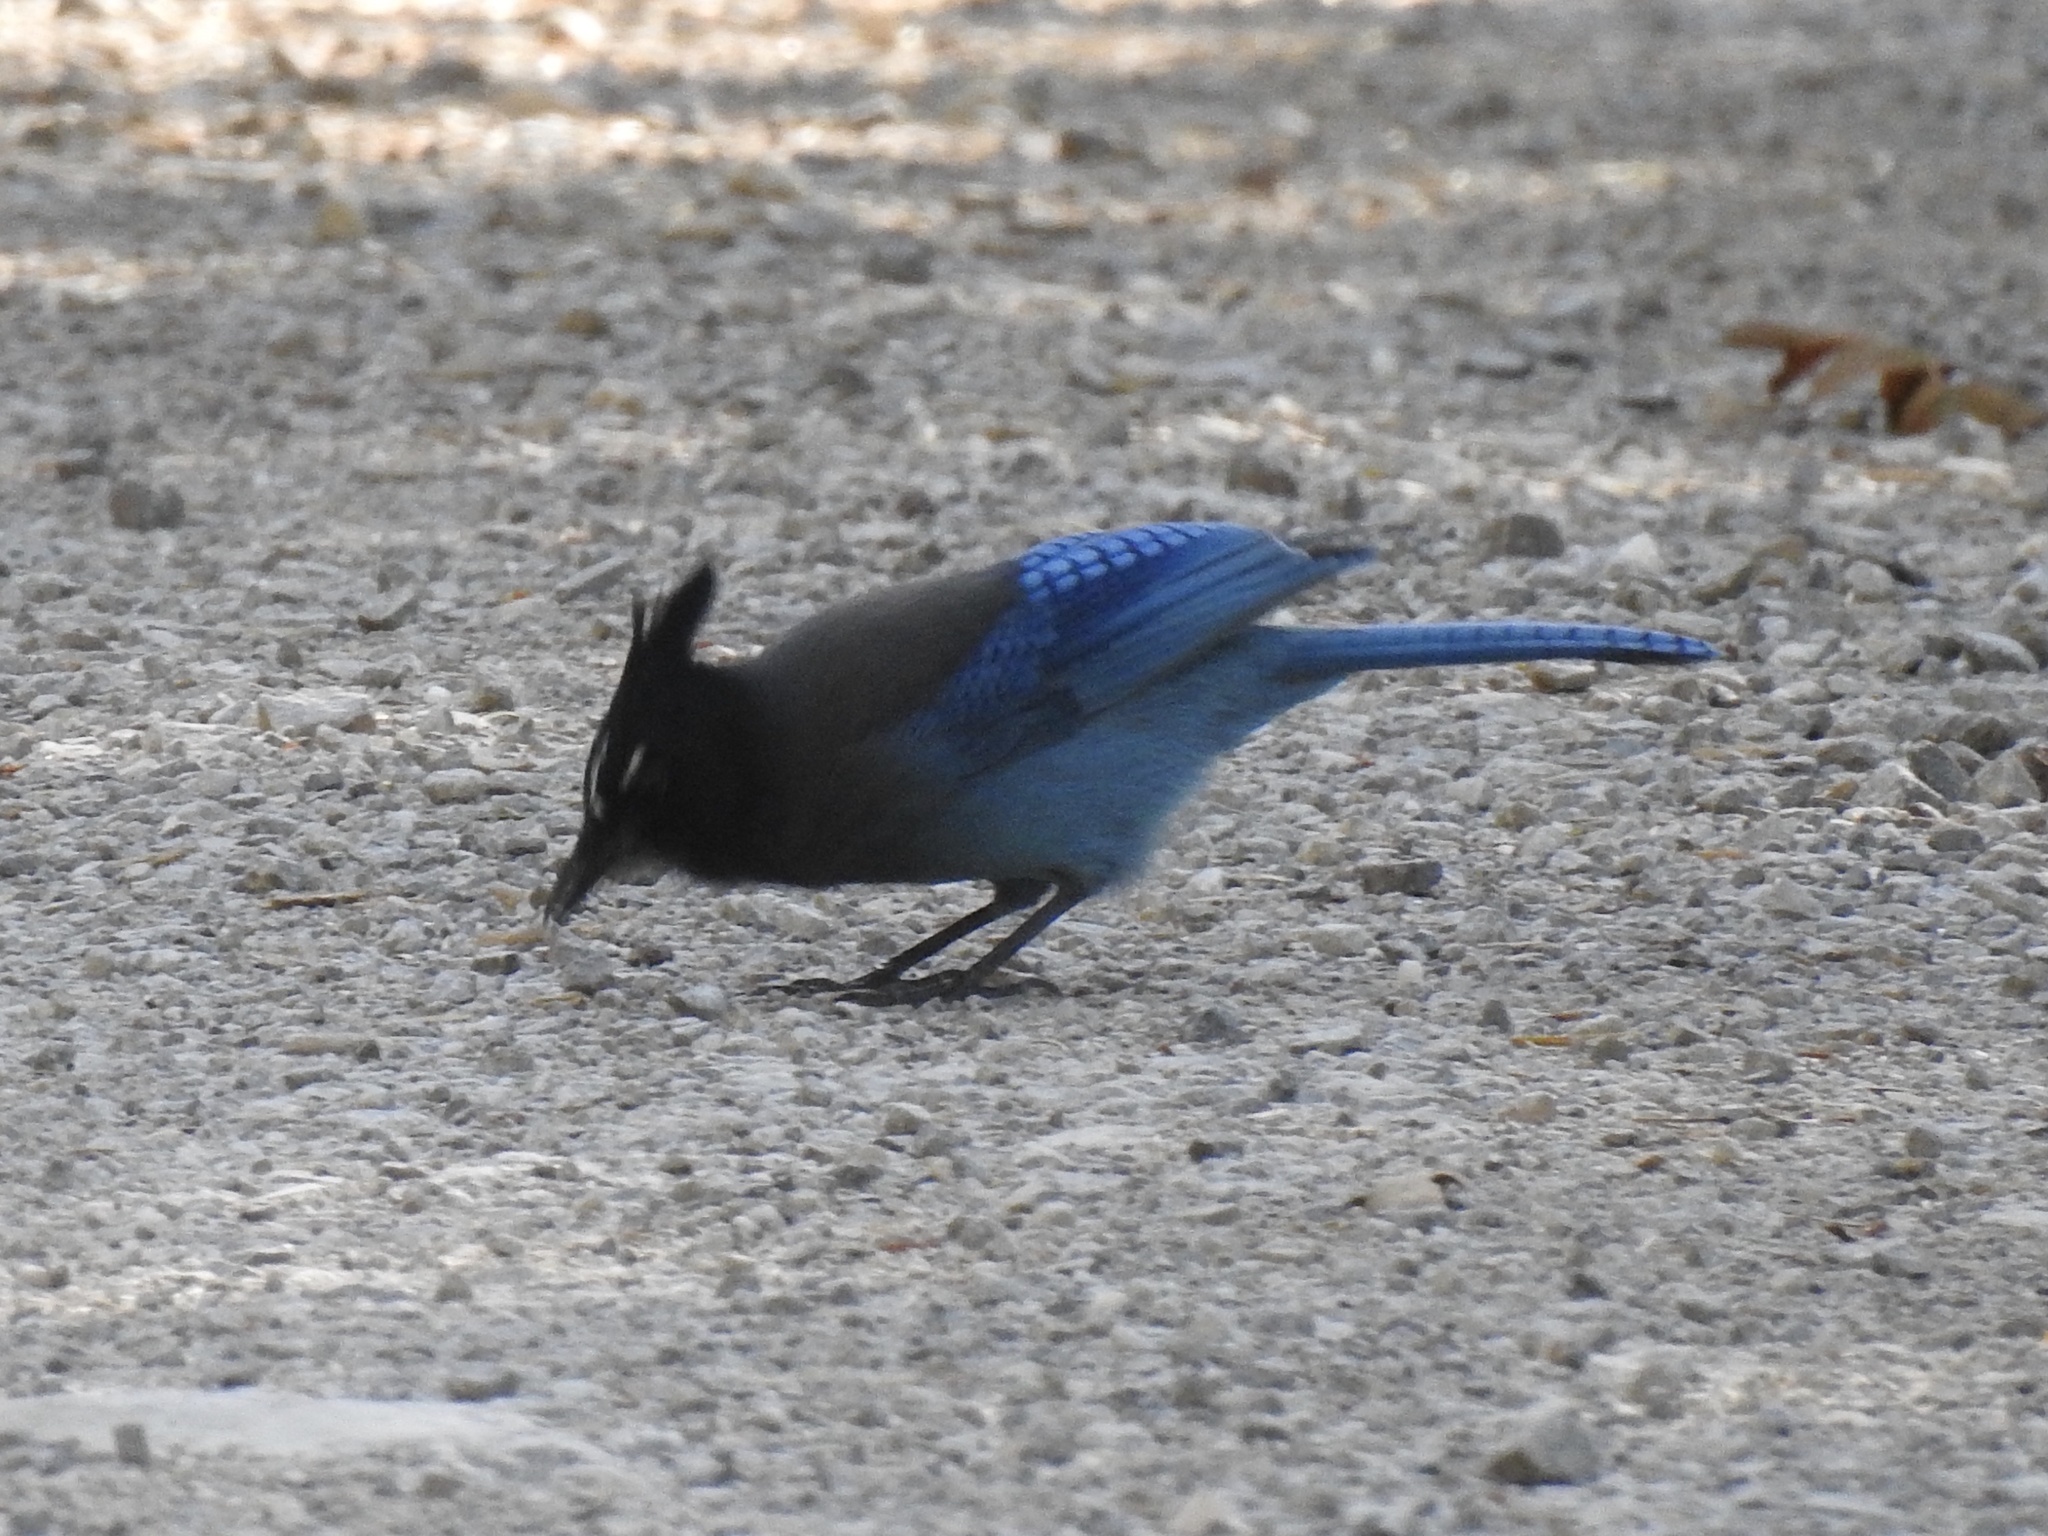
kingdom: Animalia
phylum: Chordata
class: Aves
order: Passeriformes
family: Corvidae
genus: Cyanocitta
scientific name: Cyanocitta stelleri
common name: Steller's jay
